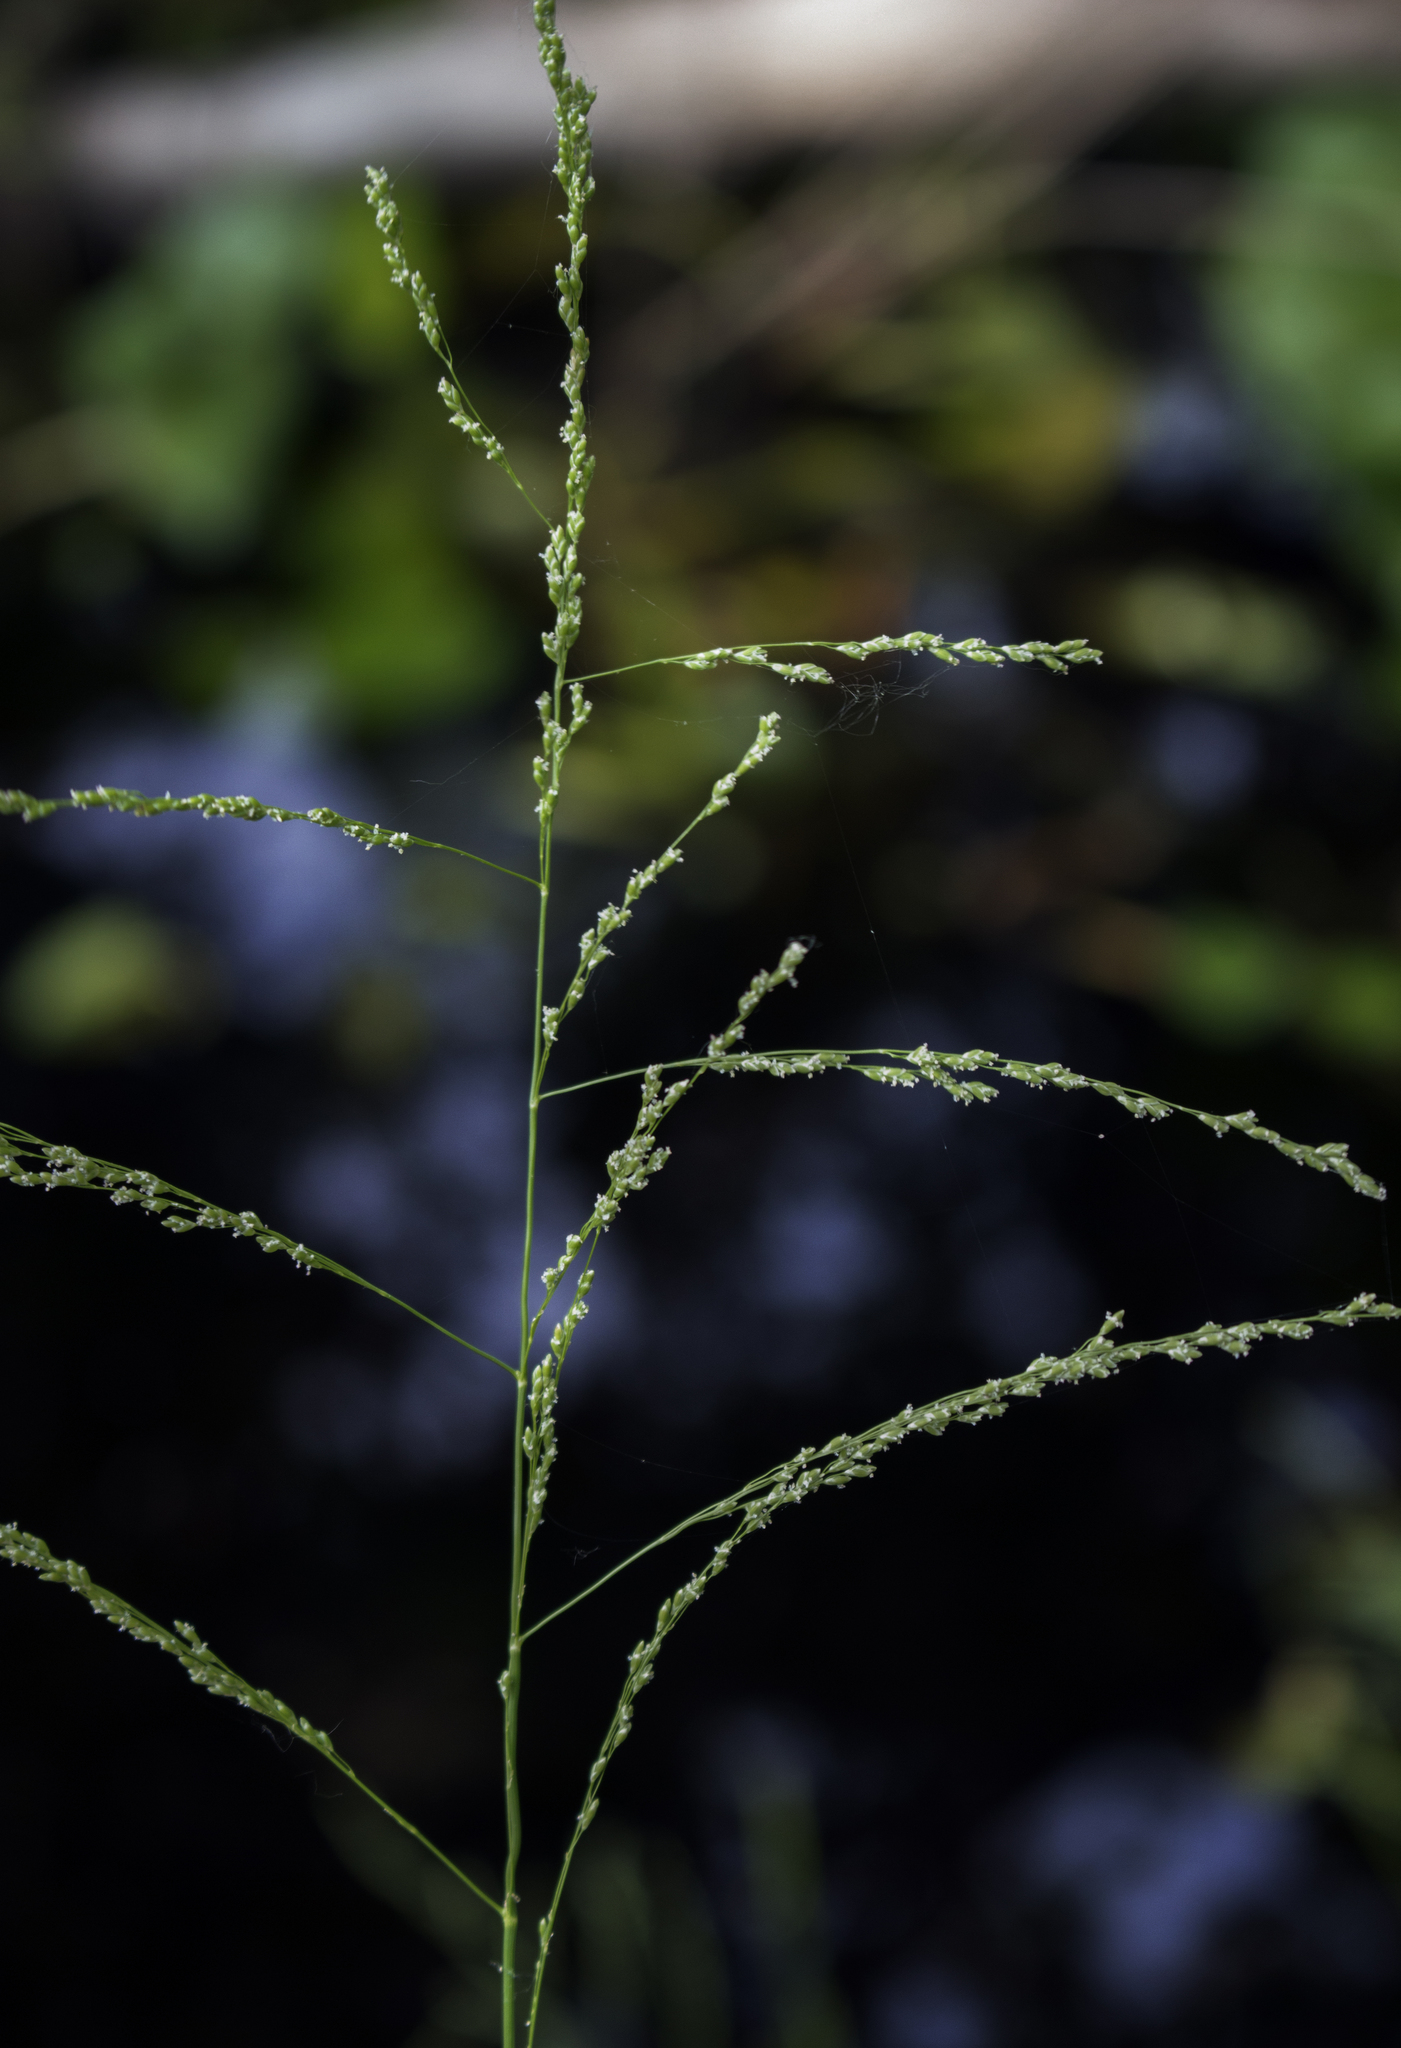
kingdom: Plantae
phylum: Tracheophyta
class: Liliopsida
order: Poales
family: Poaceae
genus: Glyceria
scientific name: Glyceria striata
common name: Fowl manna grass
